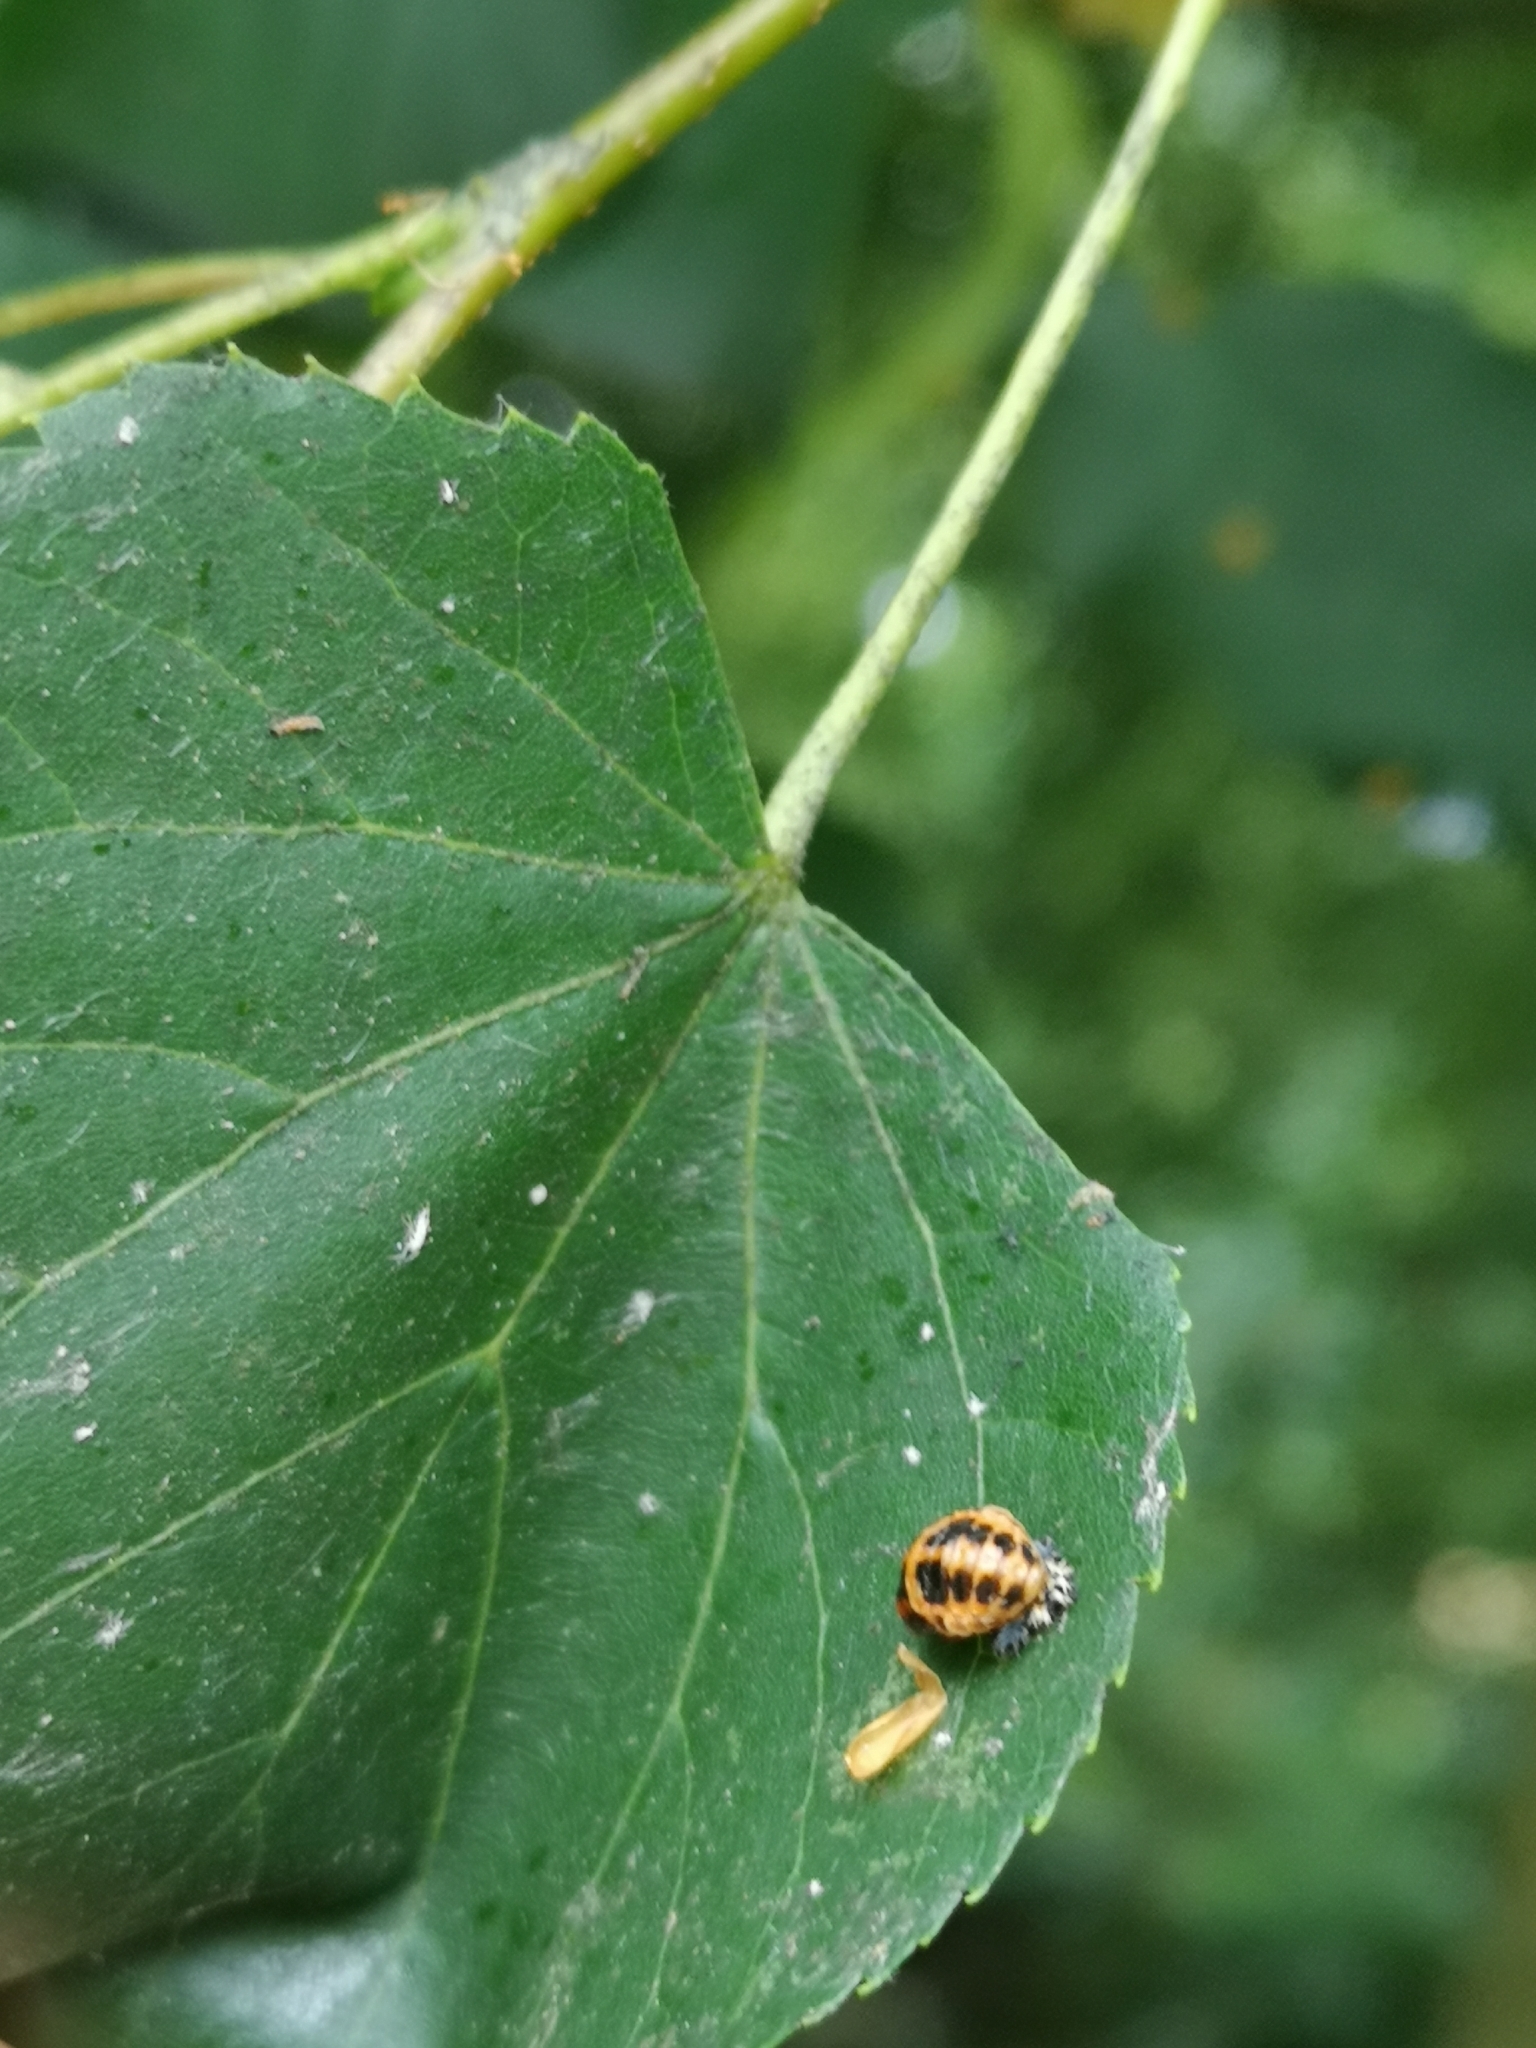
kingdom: Animalia
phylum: Arthropoda
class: Insecta
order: Coleoptera
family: Coccinellidae
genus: Harmonia
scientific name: Harmonia axyridis
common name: Harlequin ladybird
